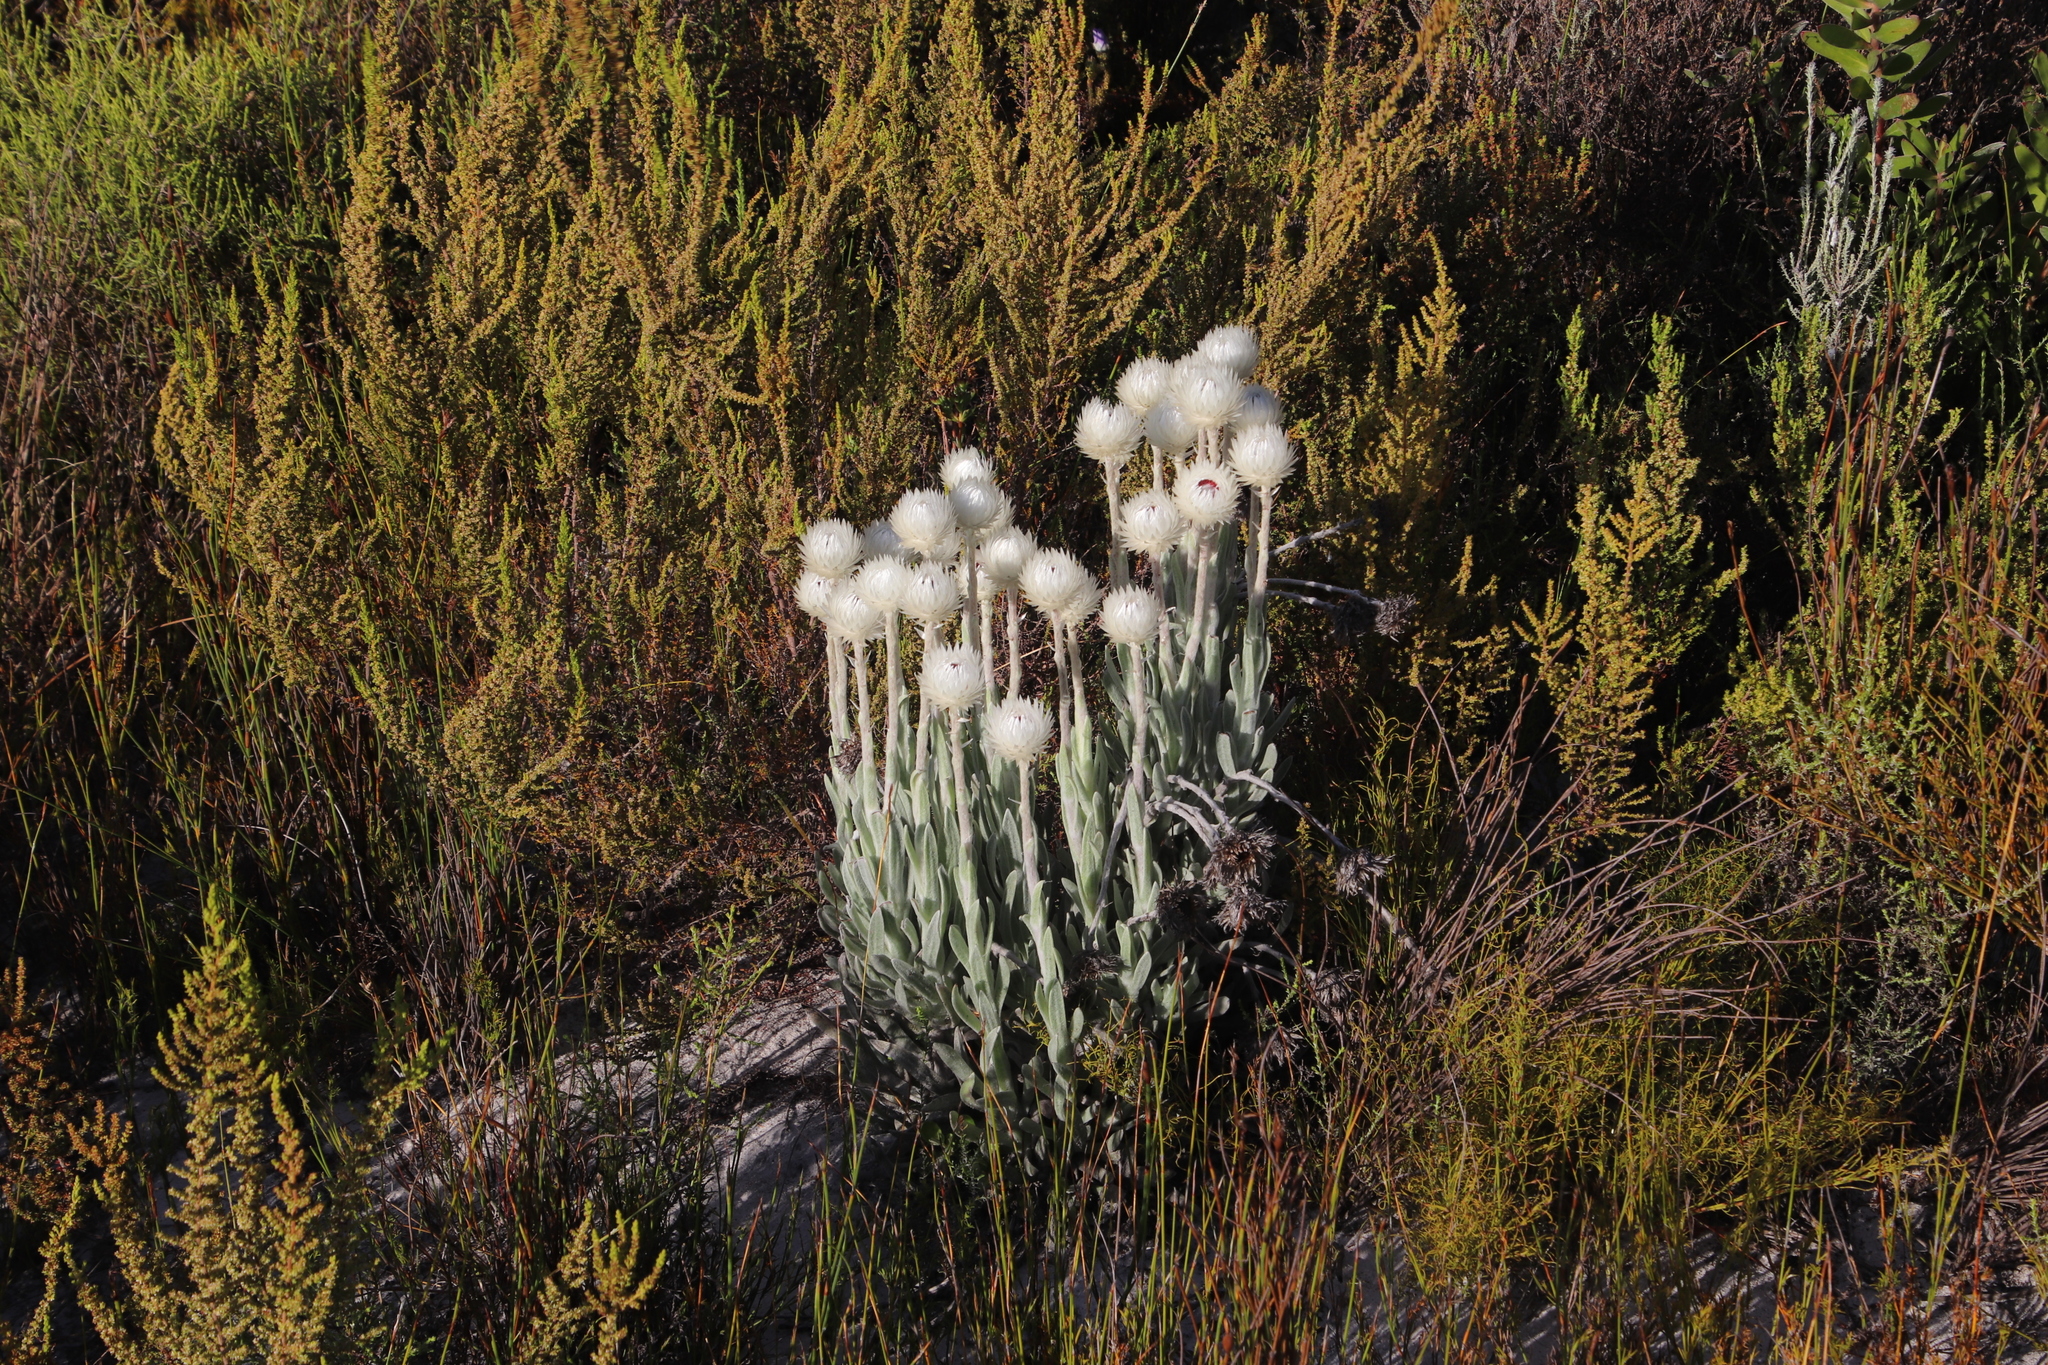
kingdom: Plantae
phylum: Tracheophyta
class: Magnoliopsida
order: Asterales
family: Asteraceae
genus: Syncarpha
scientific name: Syncarpha vestita
